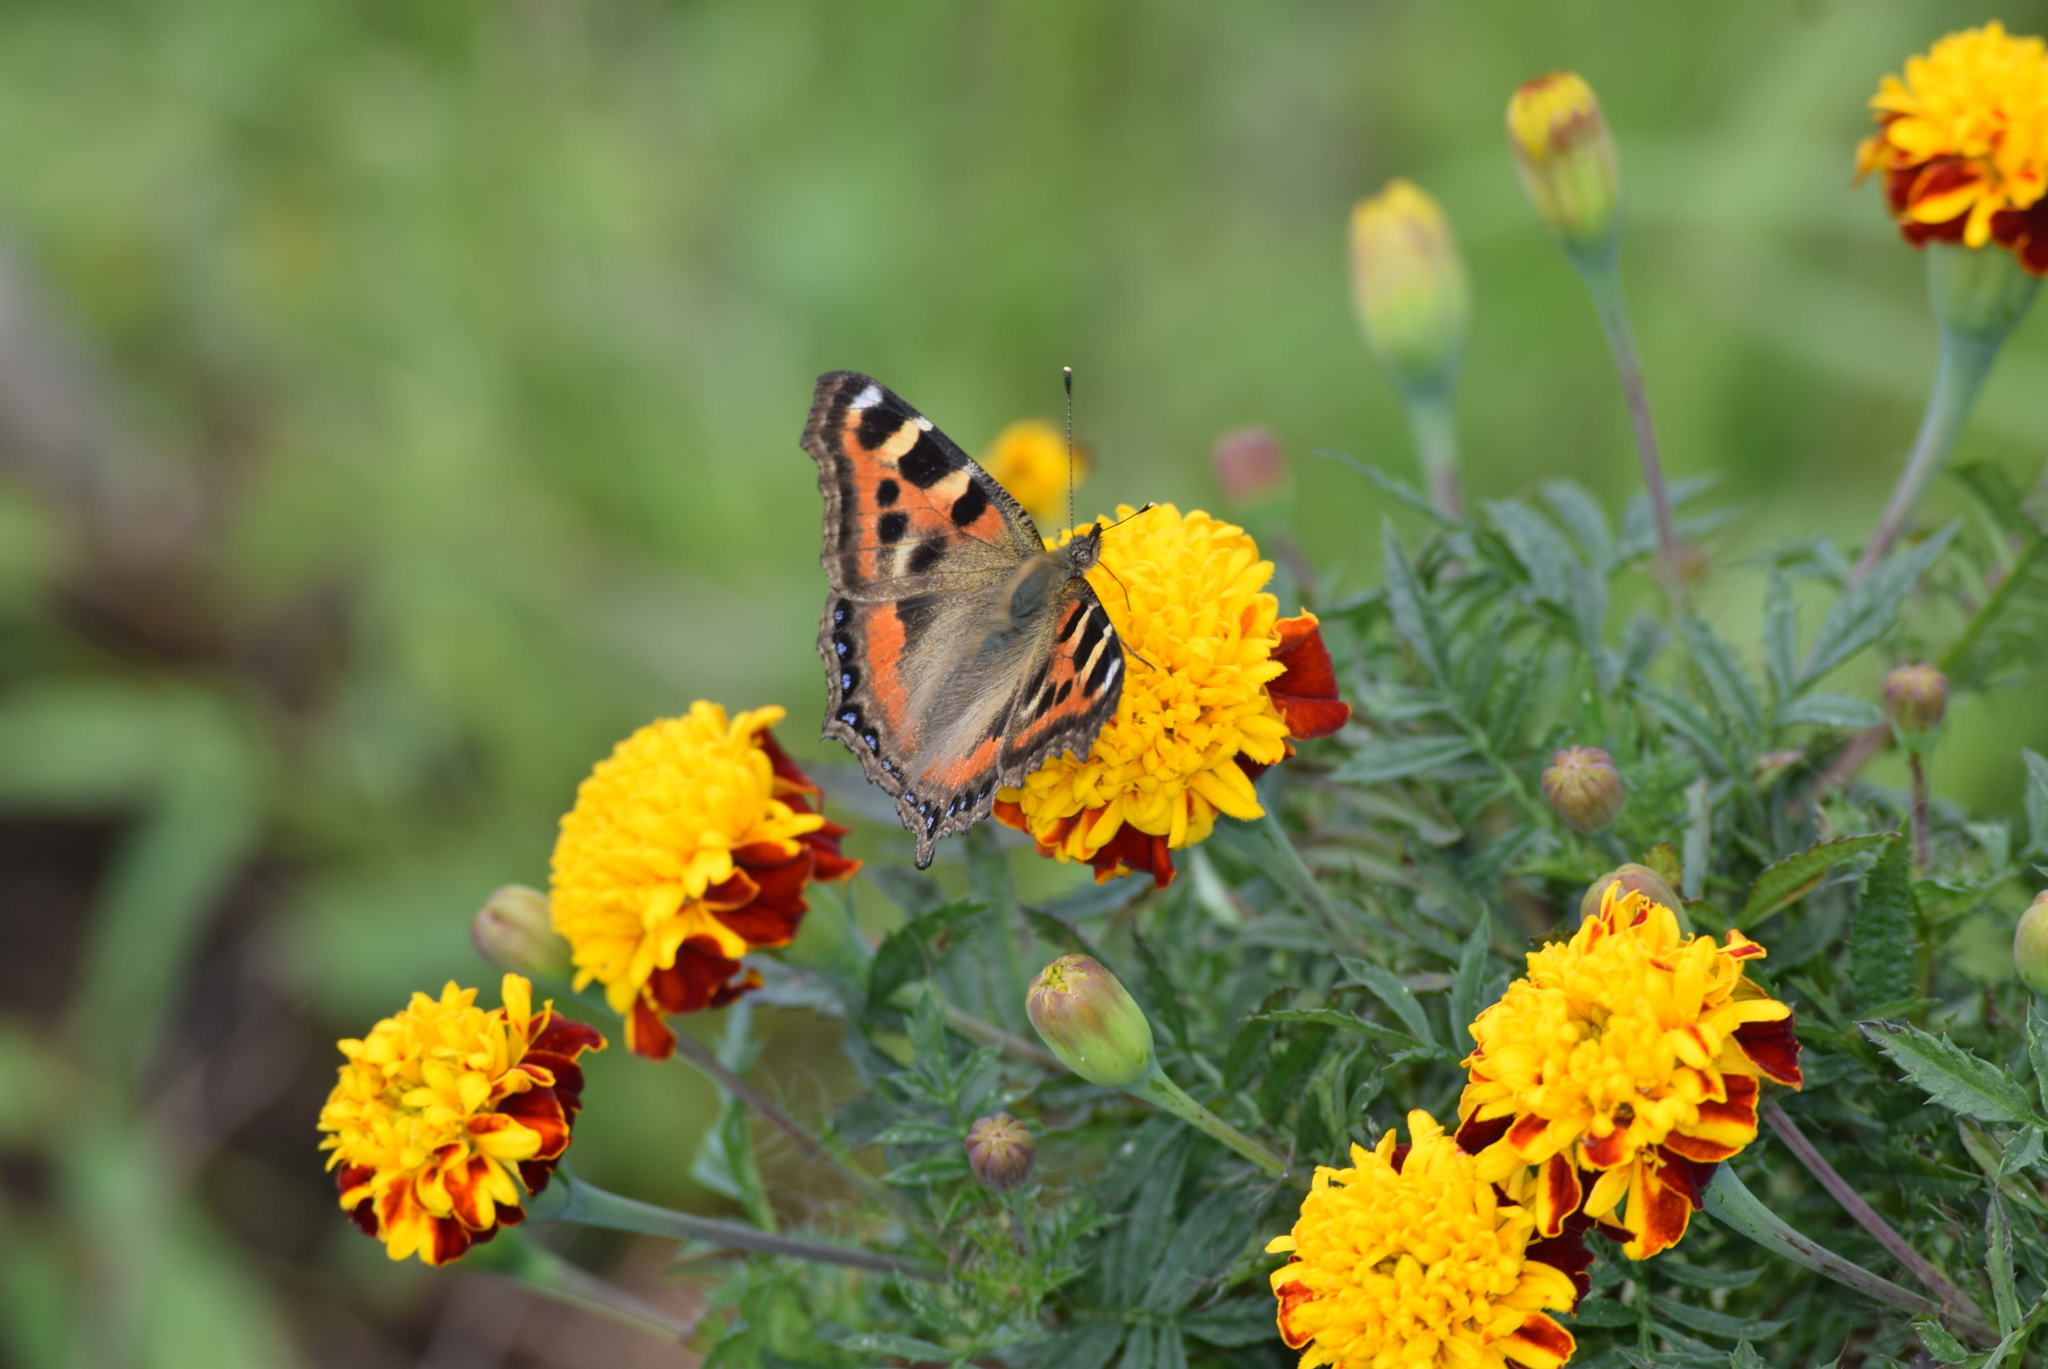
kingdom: Animalia
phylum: Arthropoda
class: Insecta
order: Lepidoptera
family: Nymphalidae
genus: Aglais
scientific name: Aglais caschmirensis
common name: Indian tortoiseshell
